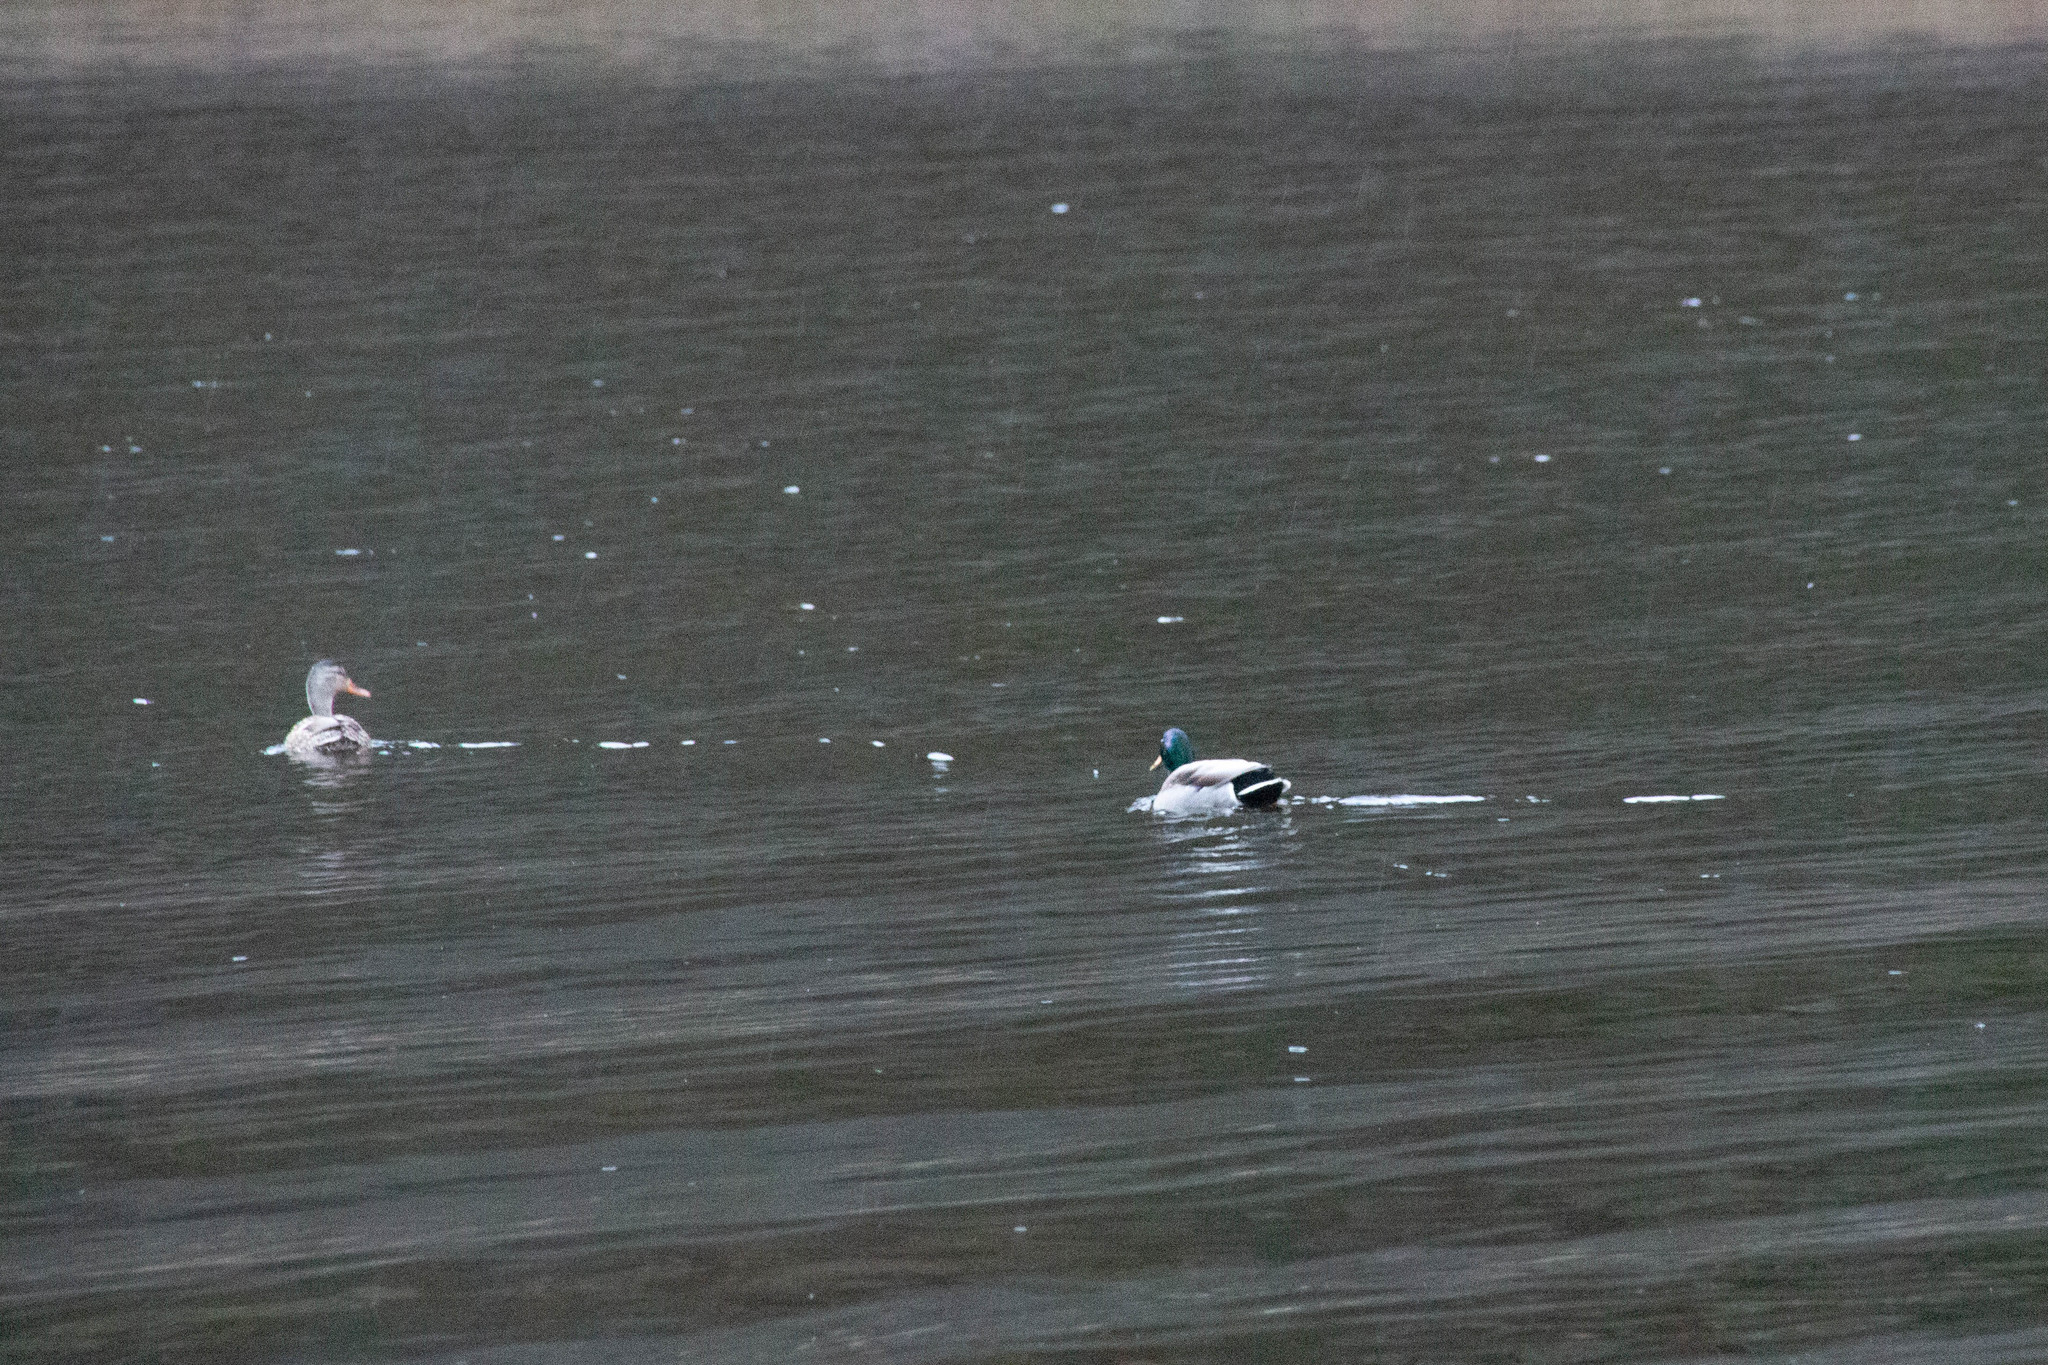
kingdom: Animalia
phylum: Chordata
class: Aves
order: Anseriformes
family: Anatidae
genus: Anas
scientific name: Anas platyrhynchos
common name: Mallard
